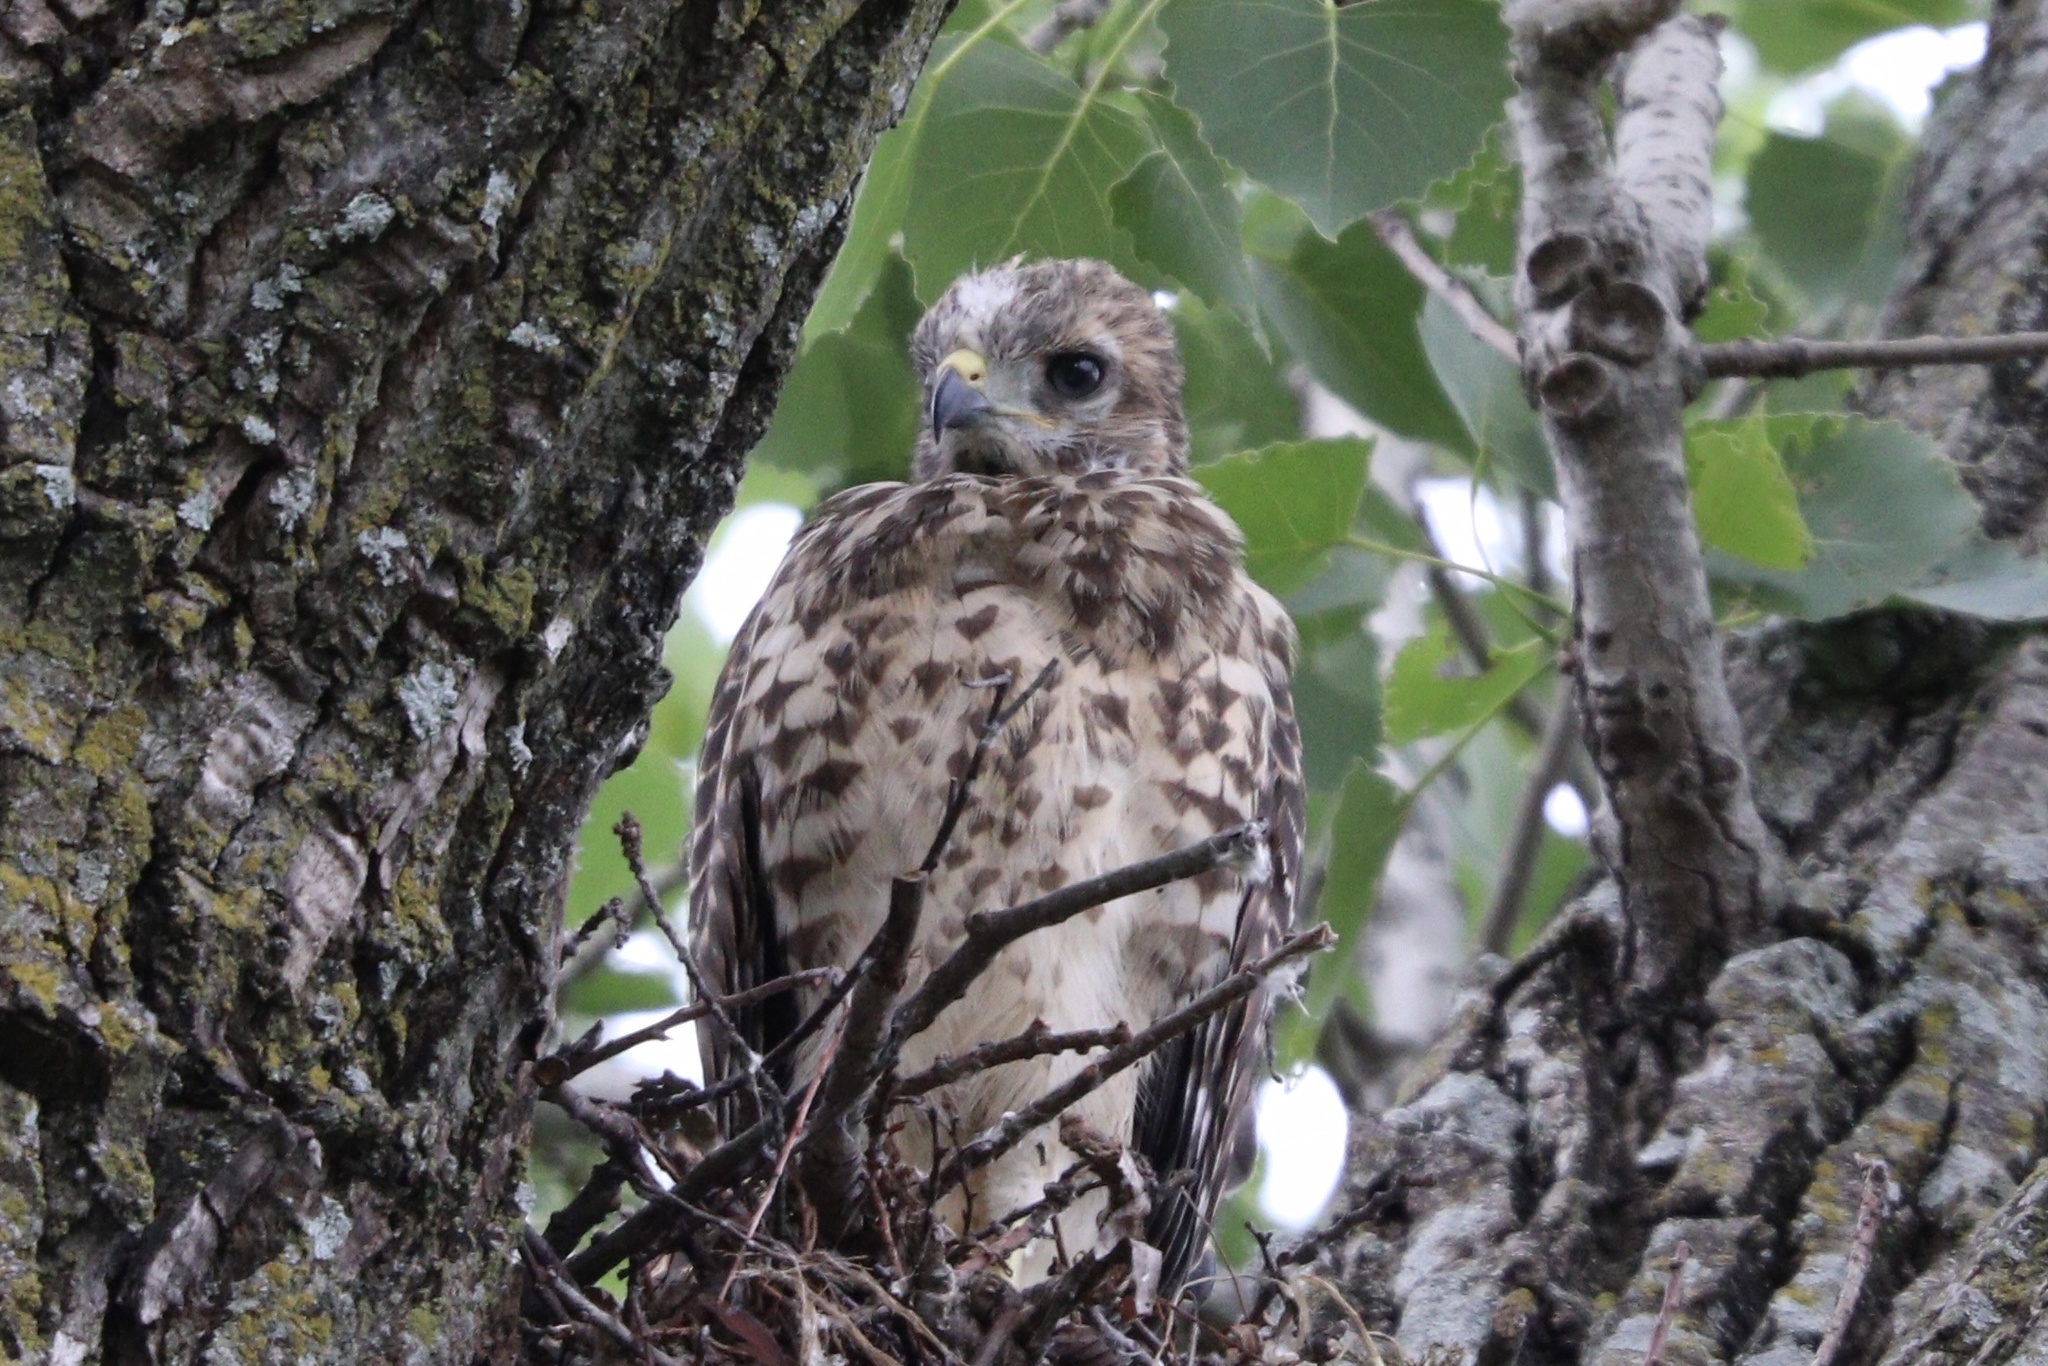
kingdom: Animalia
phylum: Chordata
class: Aves
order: Accipitriformes
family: Accipitridae
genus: Buteo
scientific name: Buteo lineatus
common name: Red-shouldered hawk
